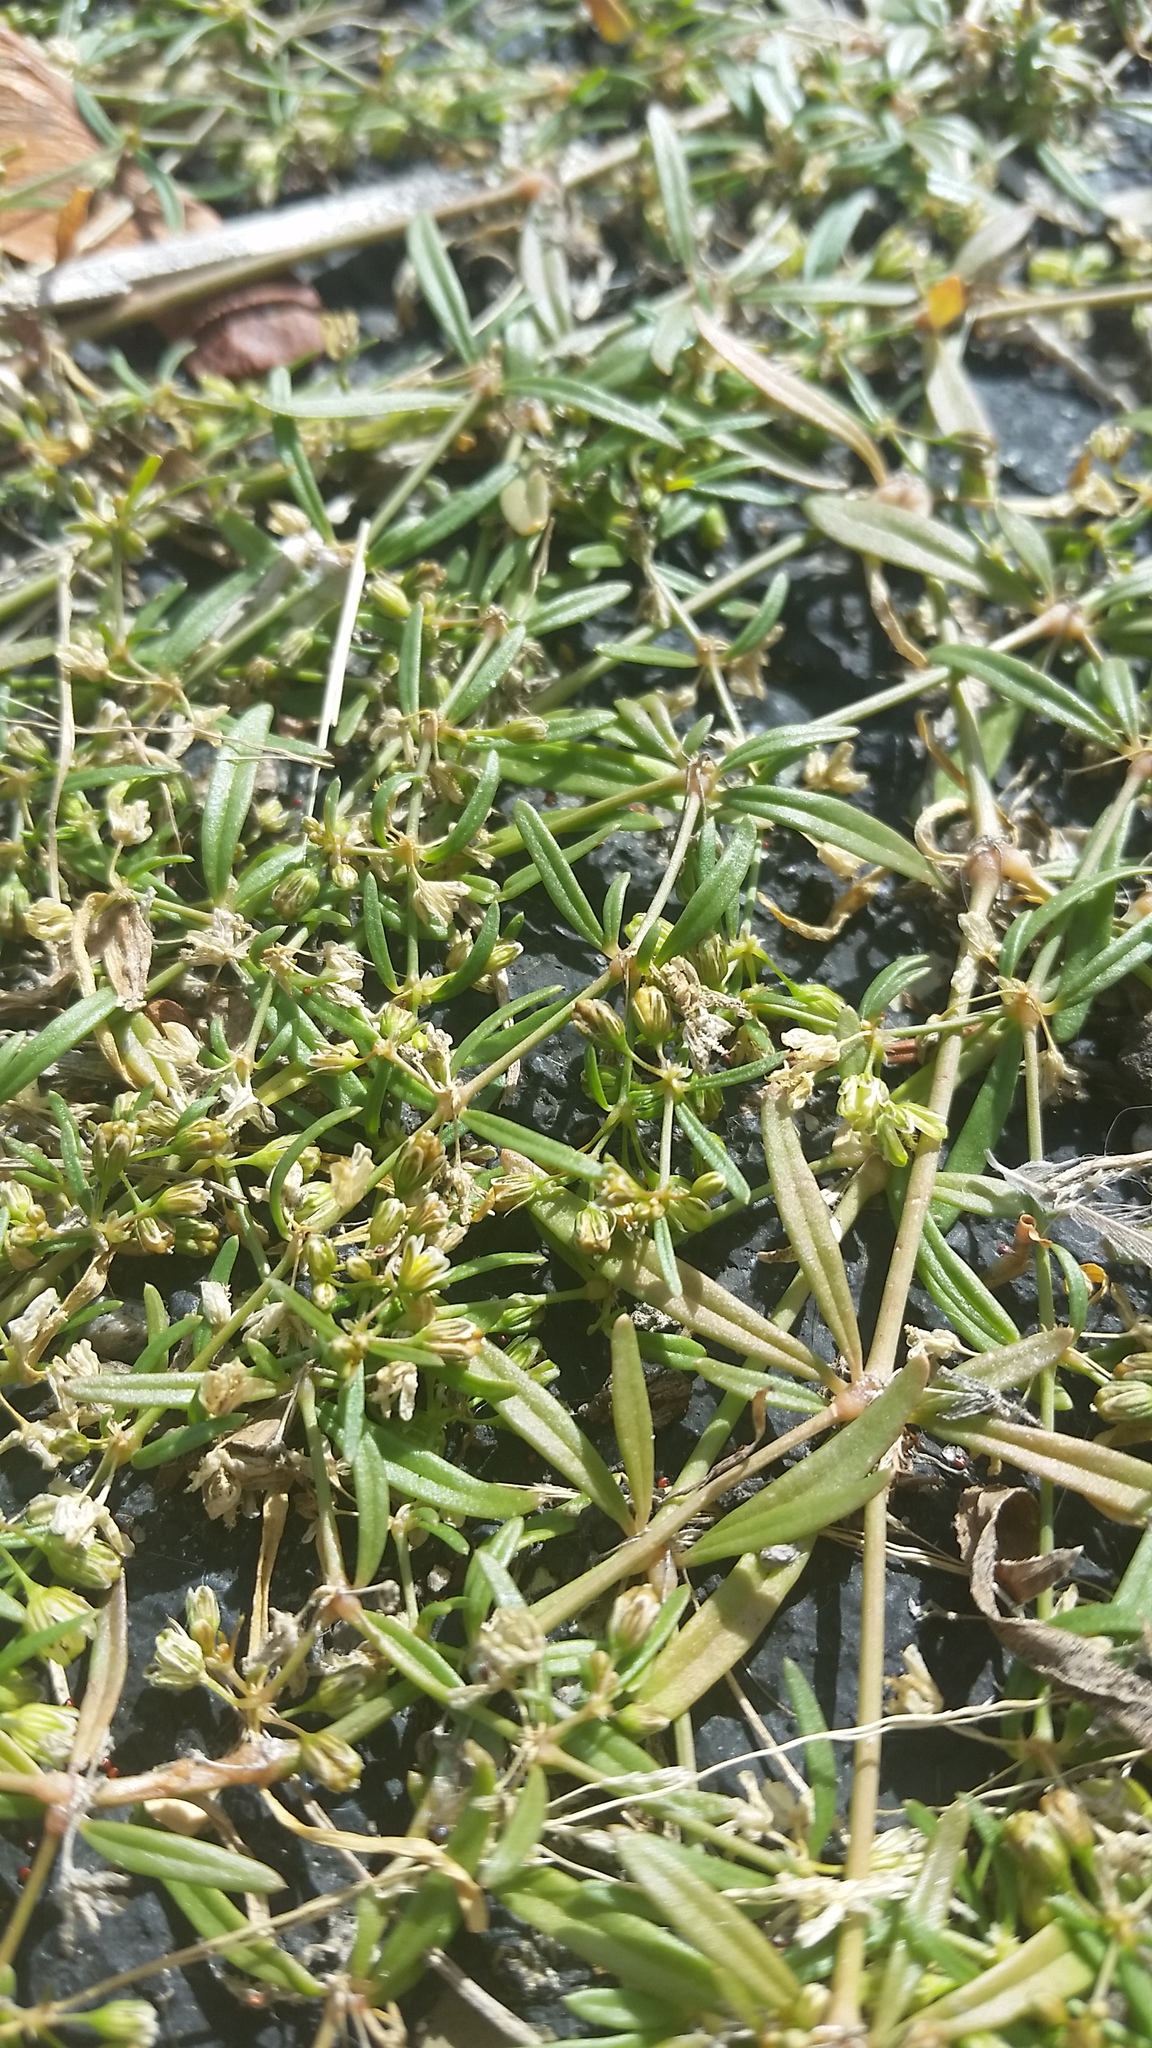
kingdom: Plantae
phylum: Tracheophyta
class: Magnoliopsida
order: Caryophyllales
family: Molluginaceae
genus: Mollugo
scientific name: Mollugo verticillata
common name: Green carpetweed
